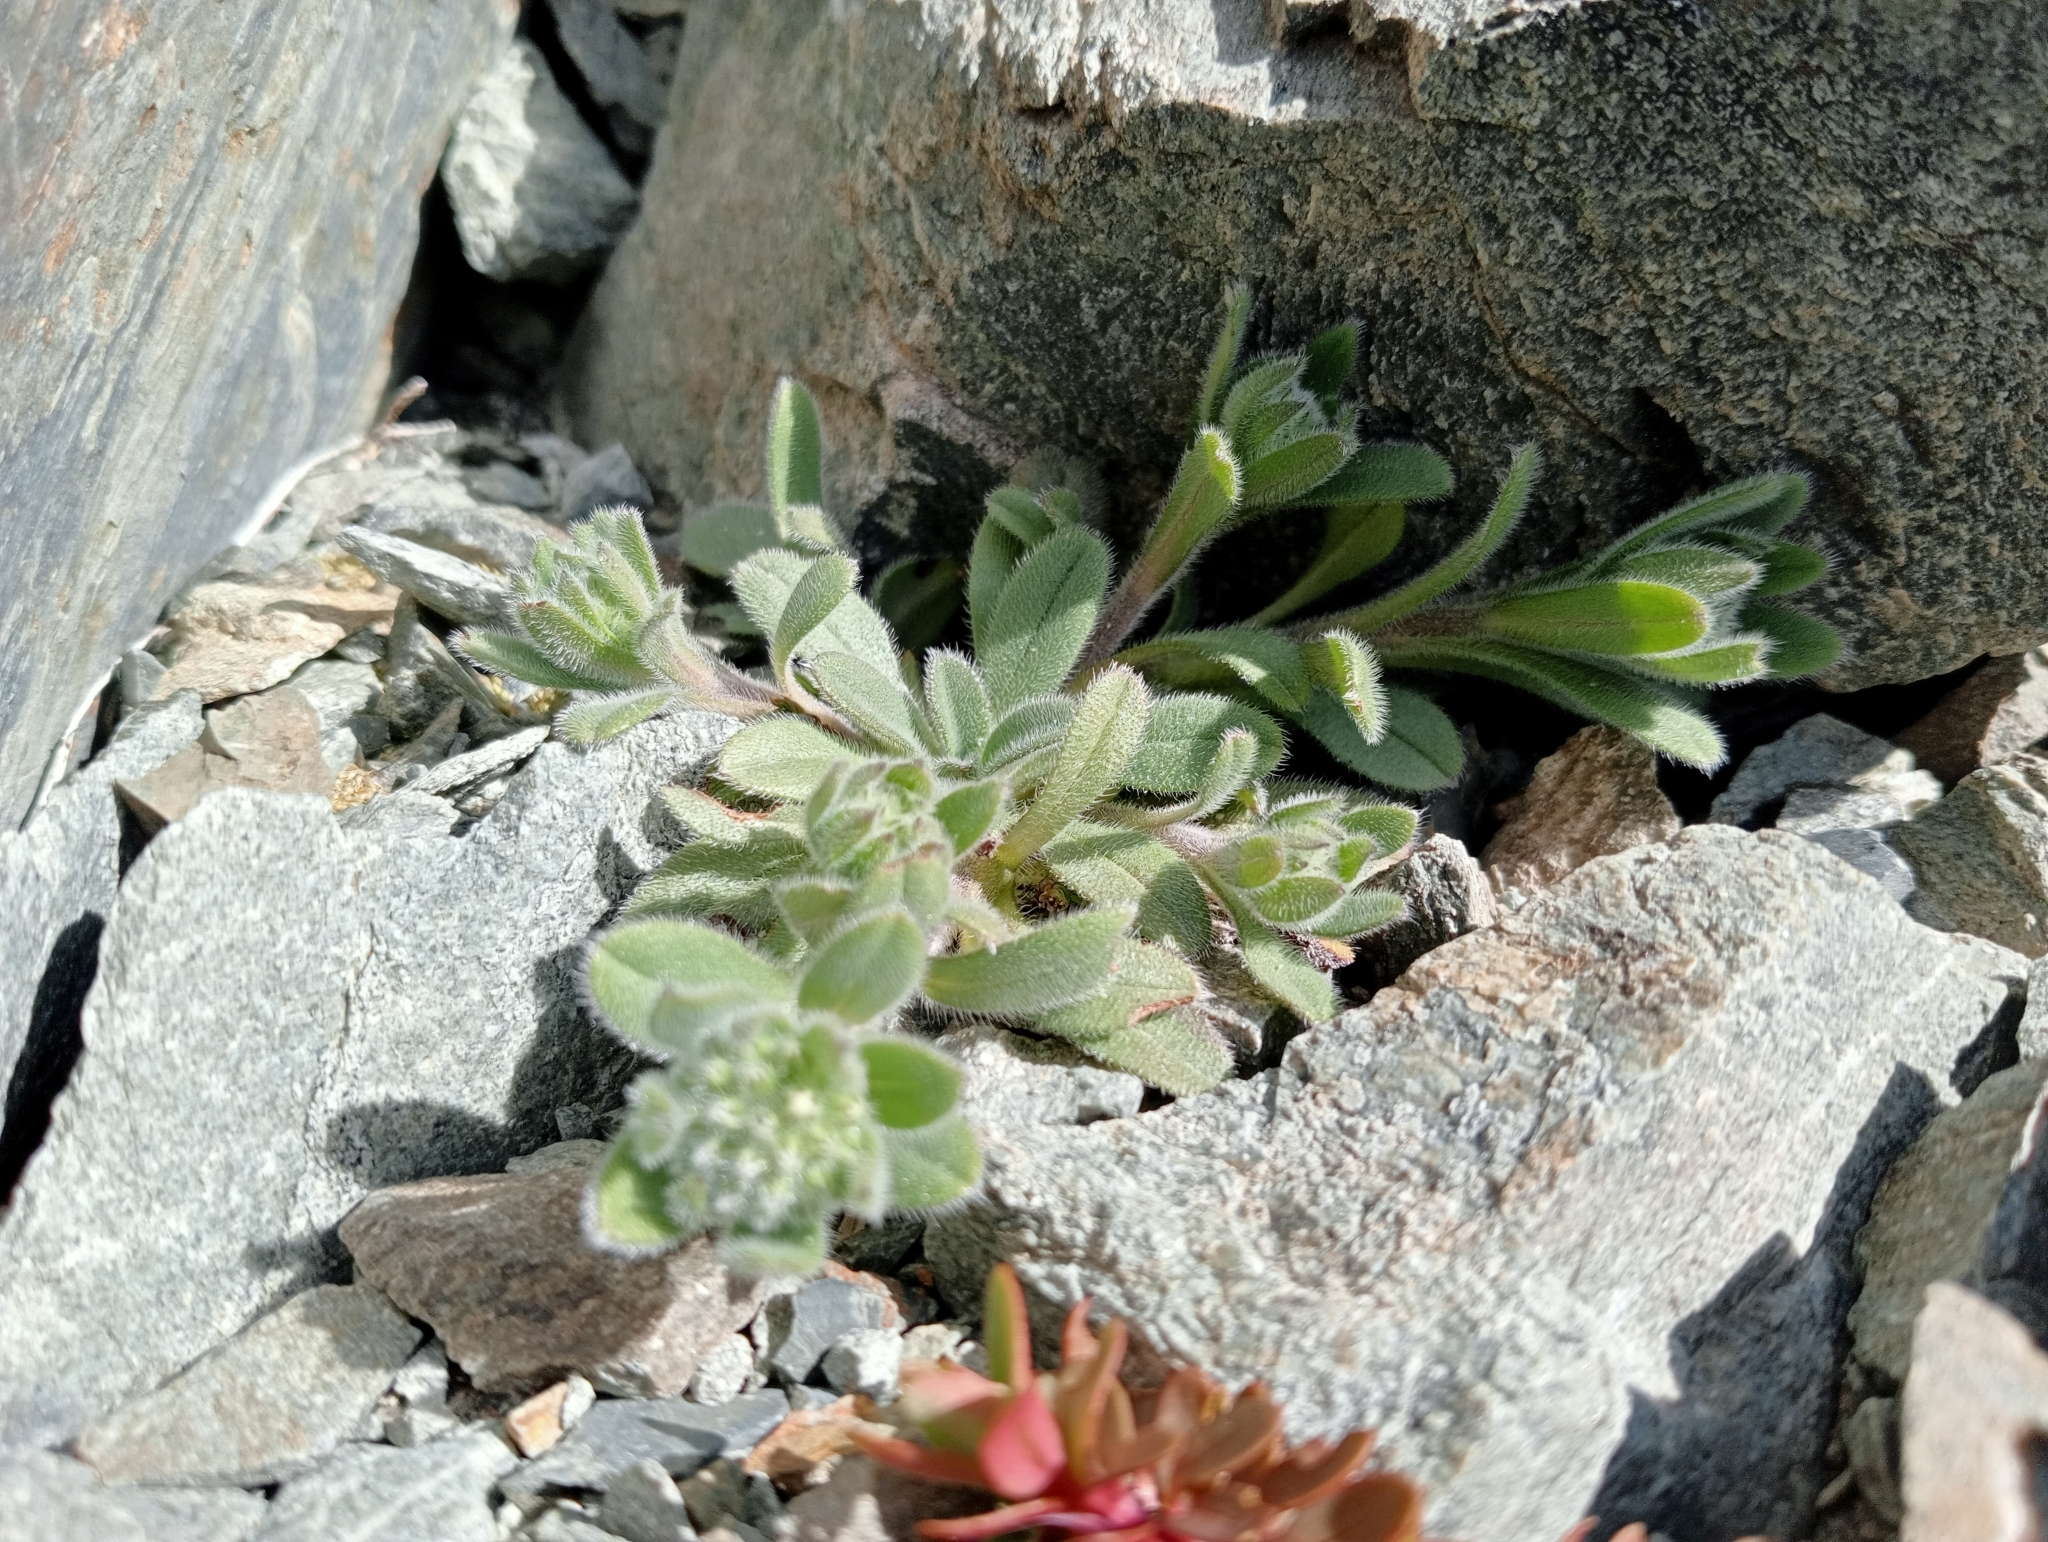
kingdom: Plantae
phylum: Tracheophyta
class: Magnoliopsida
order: Boraginales
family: Boraginaceae
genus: Myosotis
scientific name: Myosotis traversii
